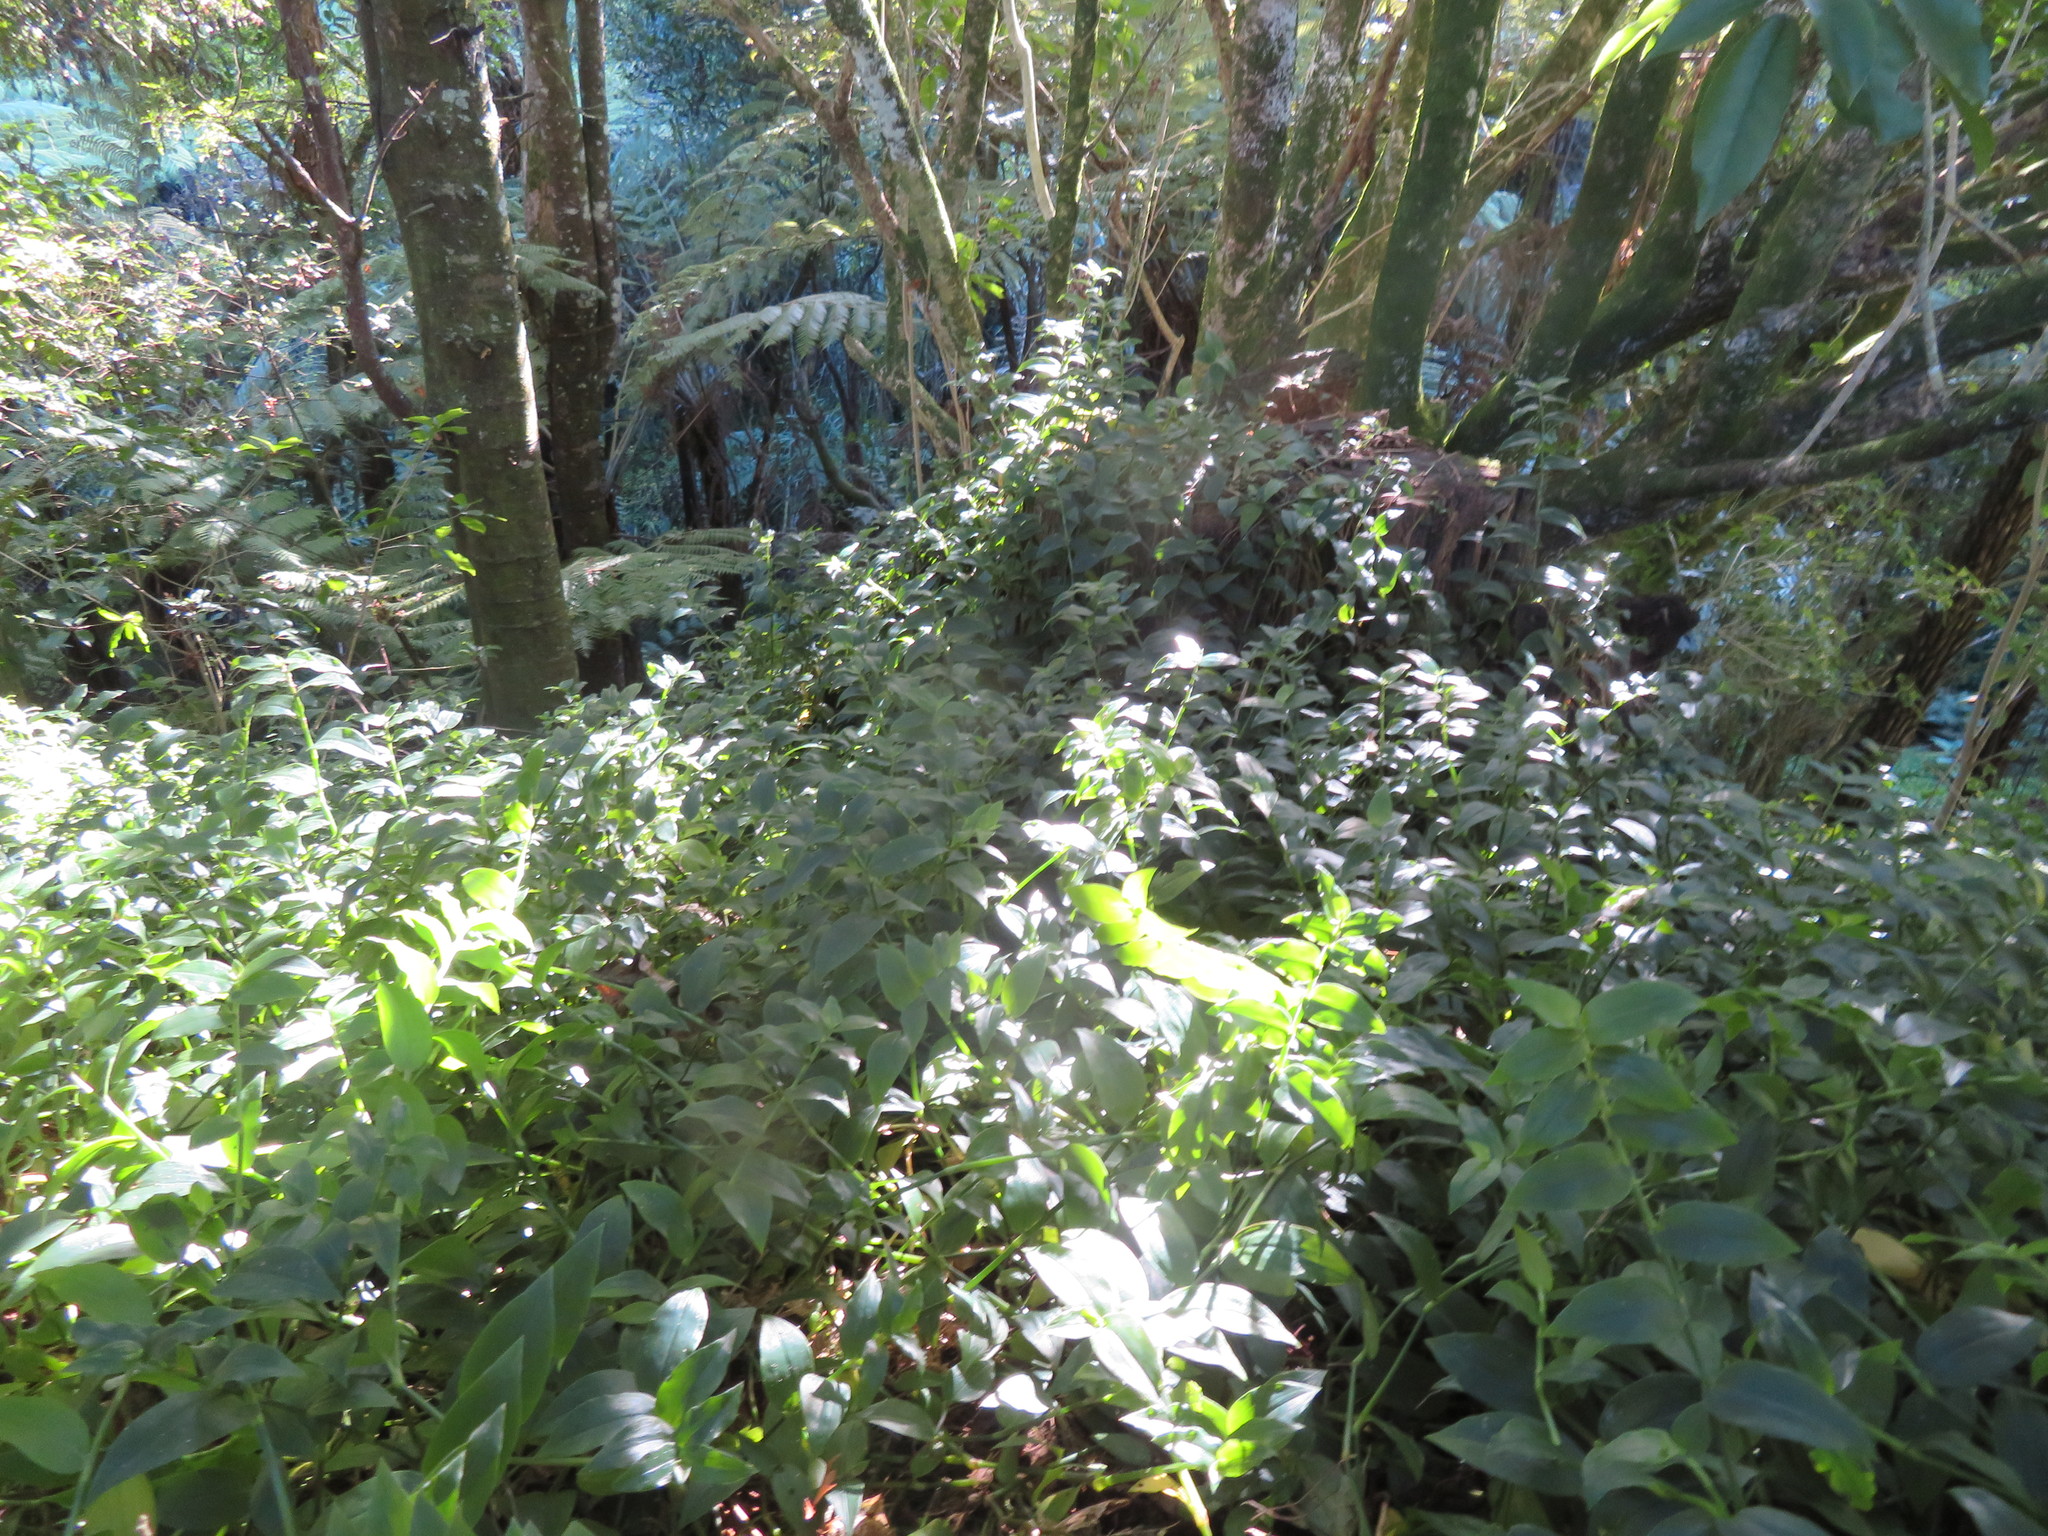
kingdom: Plantae
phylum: Tracheophyta
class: Liliopsida
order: Commelinales
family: Commelinaceae
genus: Tradescantia
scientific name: Tradescantia fluminensis
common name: Wandering-jew
